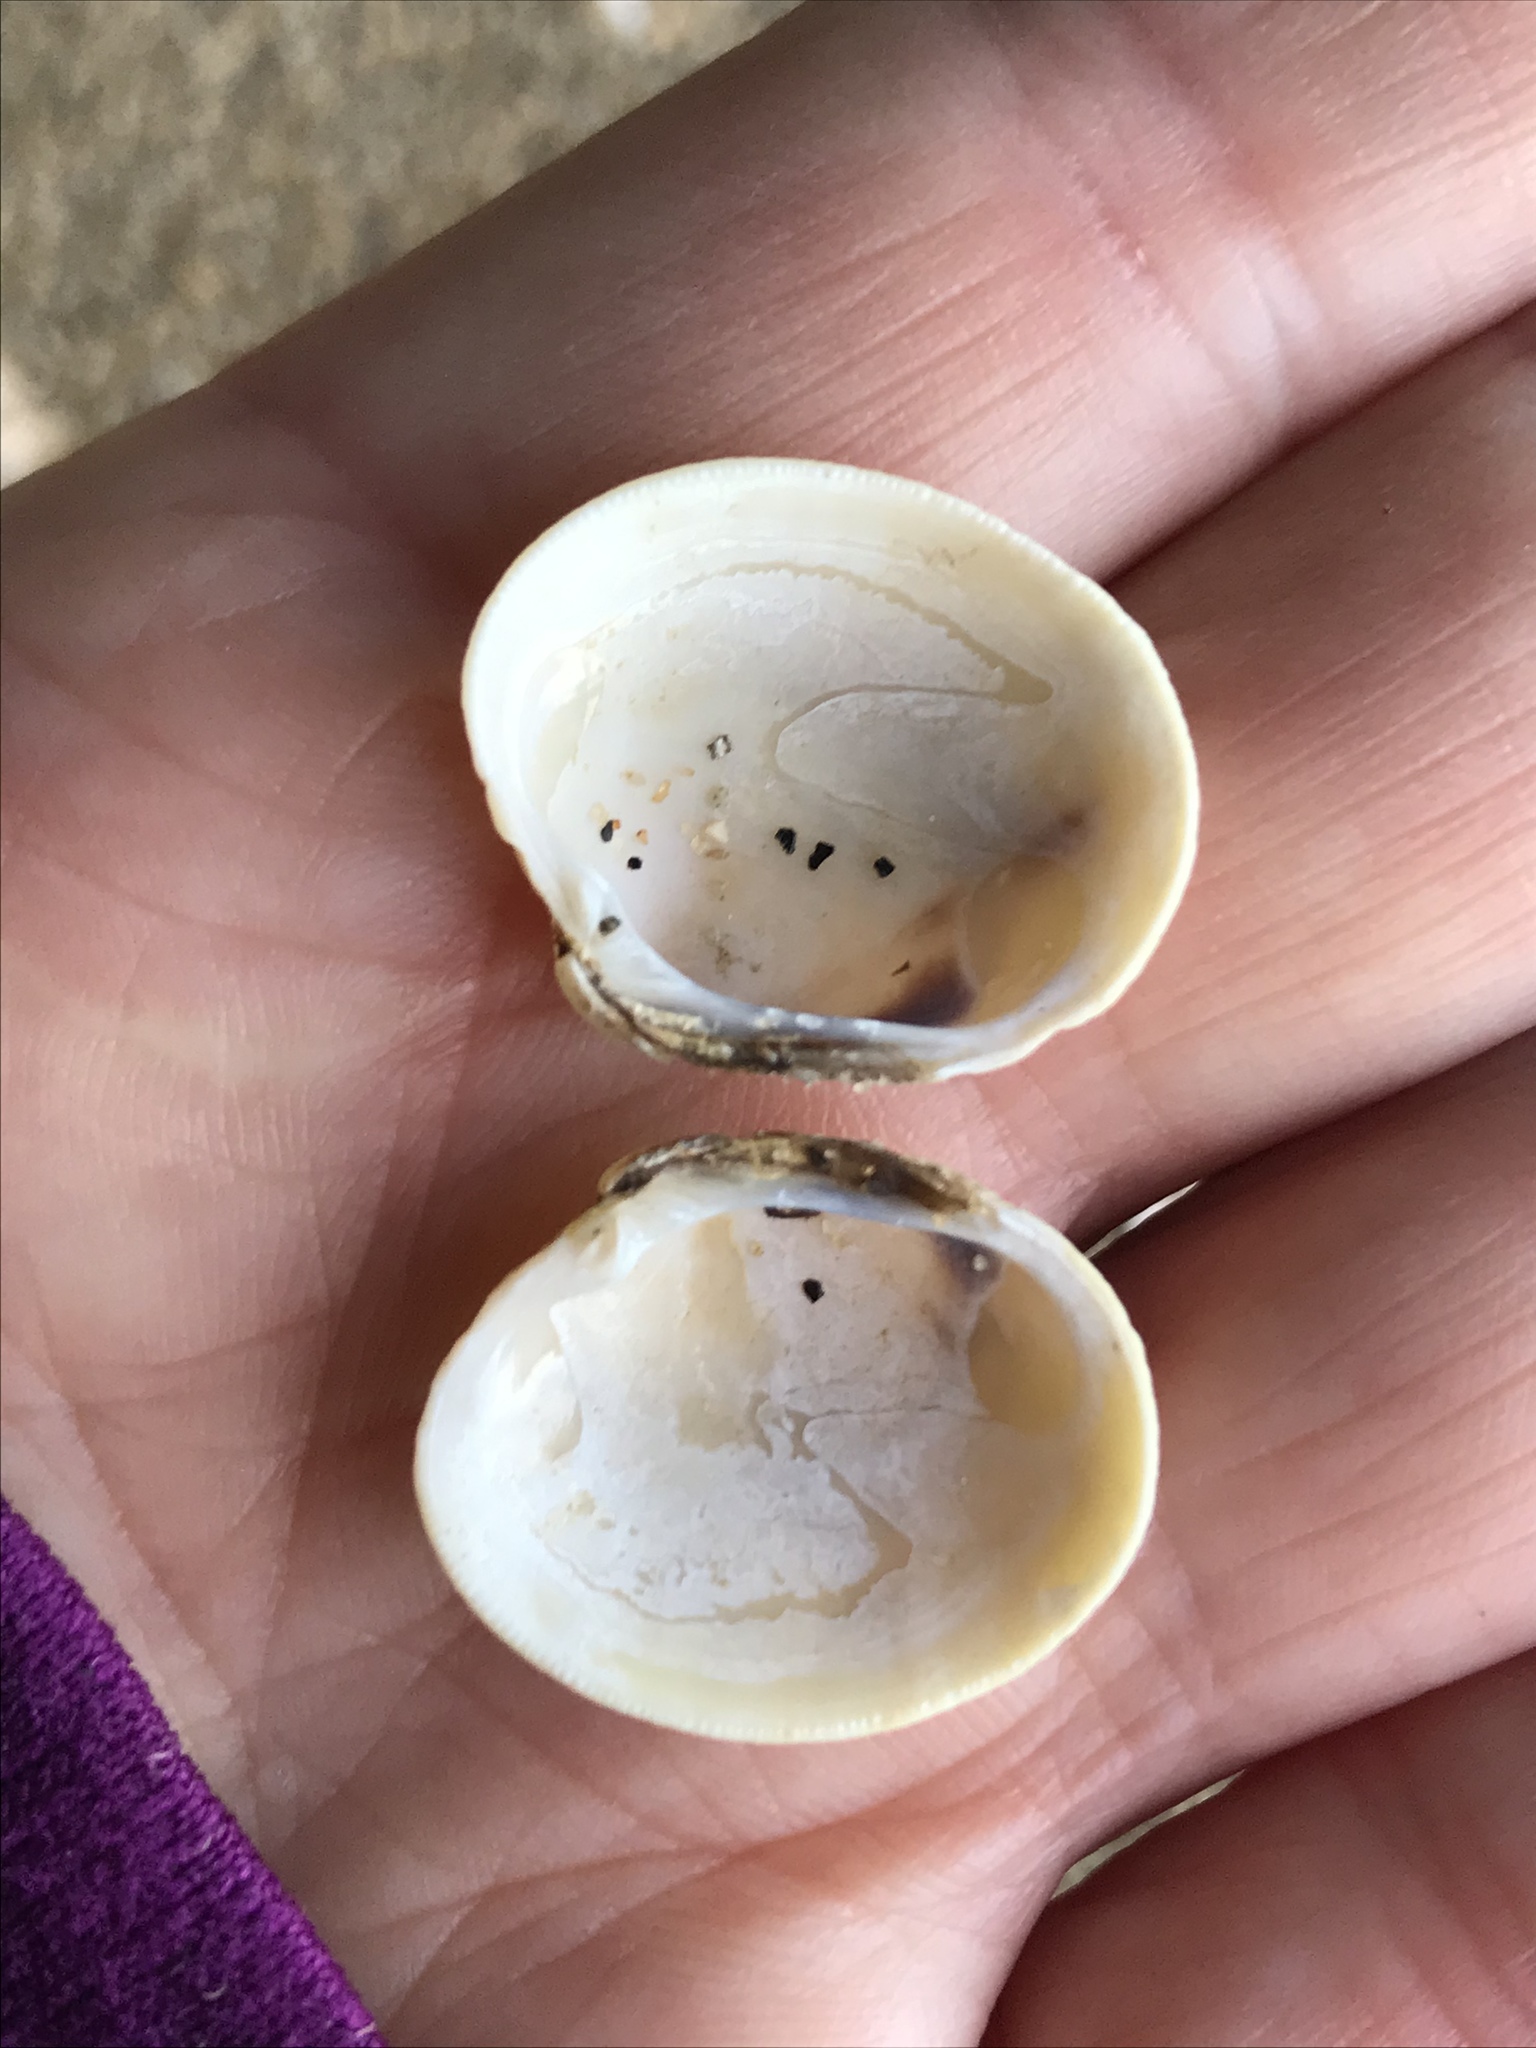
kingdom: Animalia
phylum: Mollusca
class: Bivalvia
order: Venerida
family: Veneridae
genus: Leukoma
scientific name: Leukoma staminea
